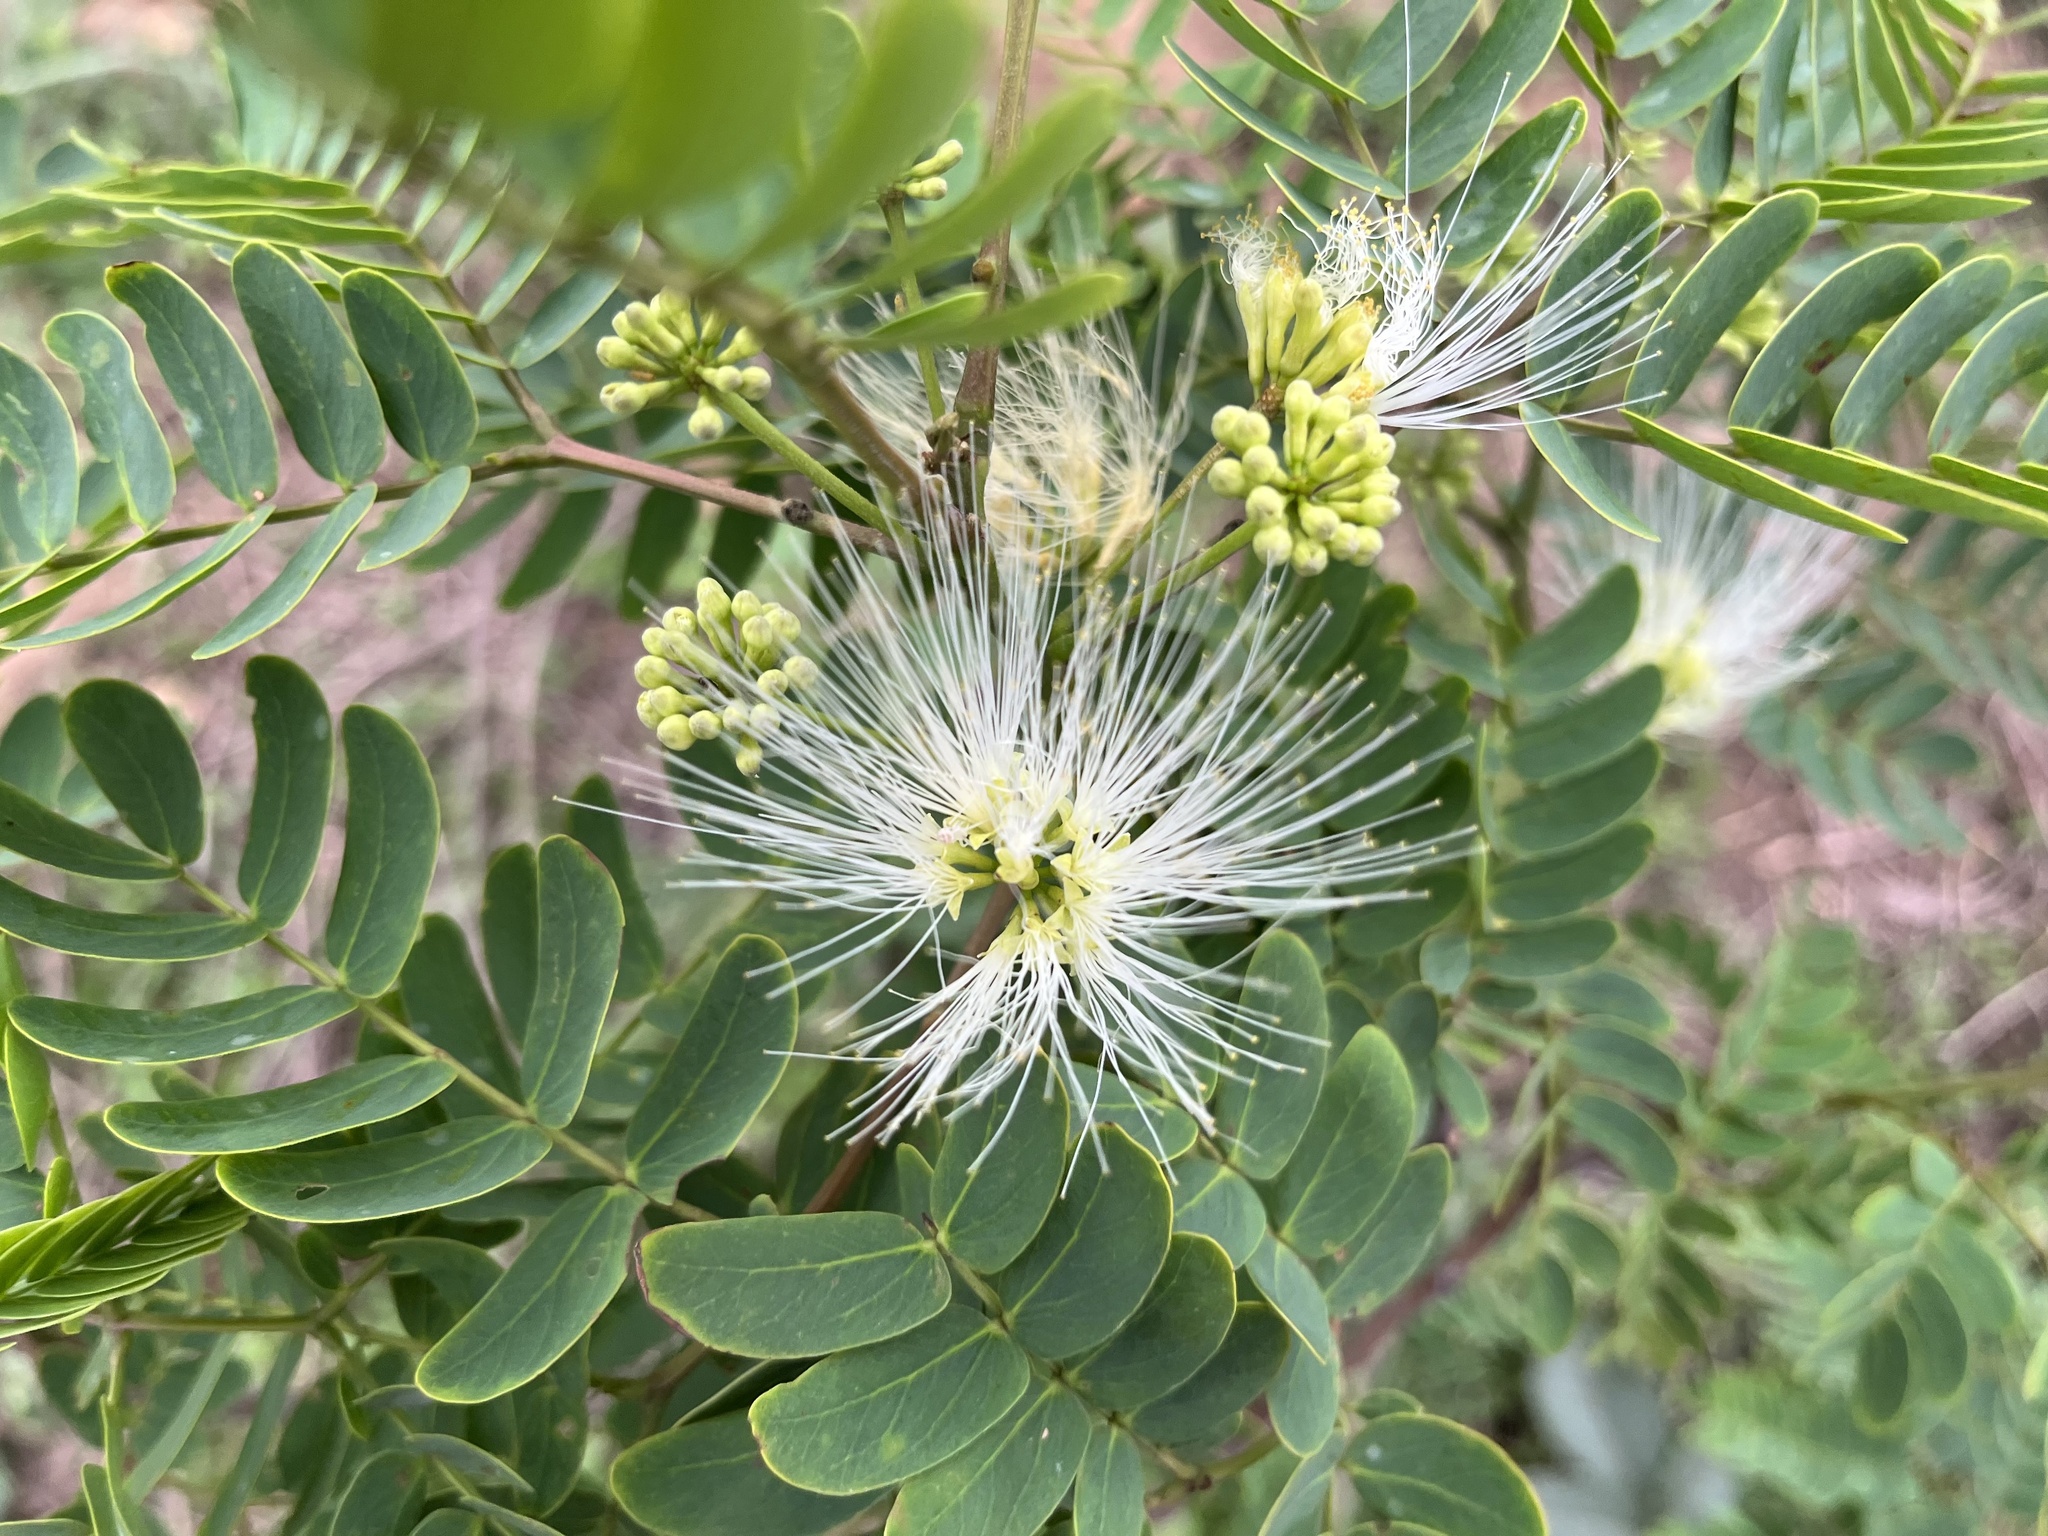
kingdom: Plantae
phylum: Tracheophyta
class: Magnoliopsida
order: Fabales
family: Fabaceae
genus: Albizia
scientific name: Albizia kalkora
